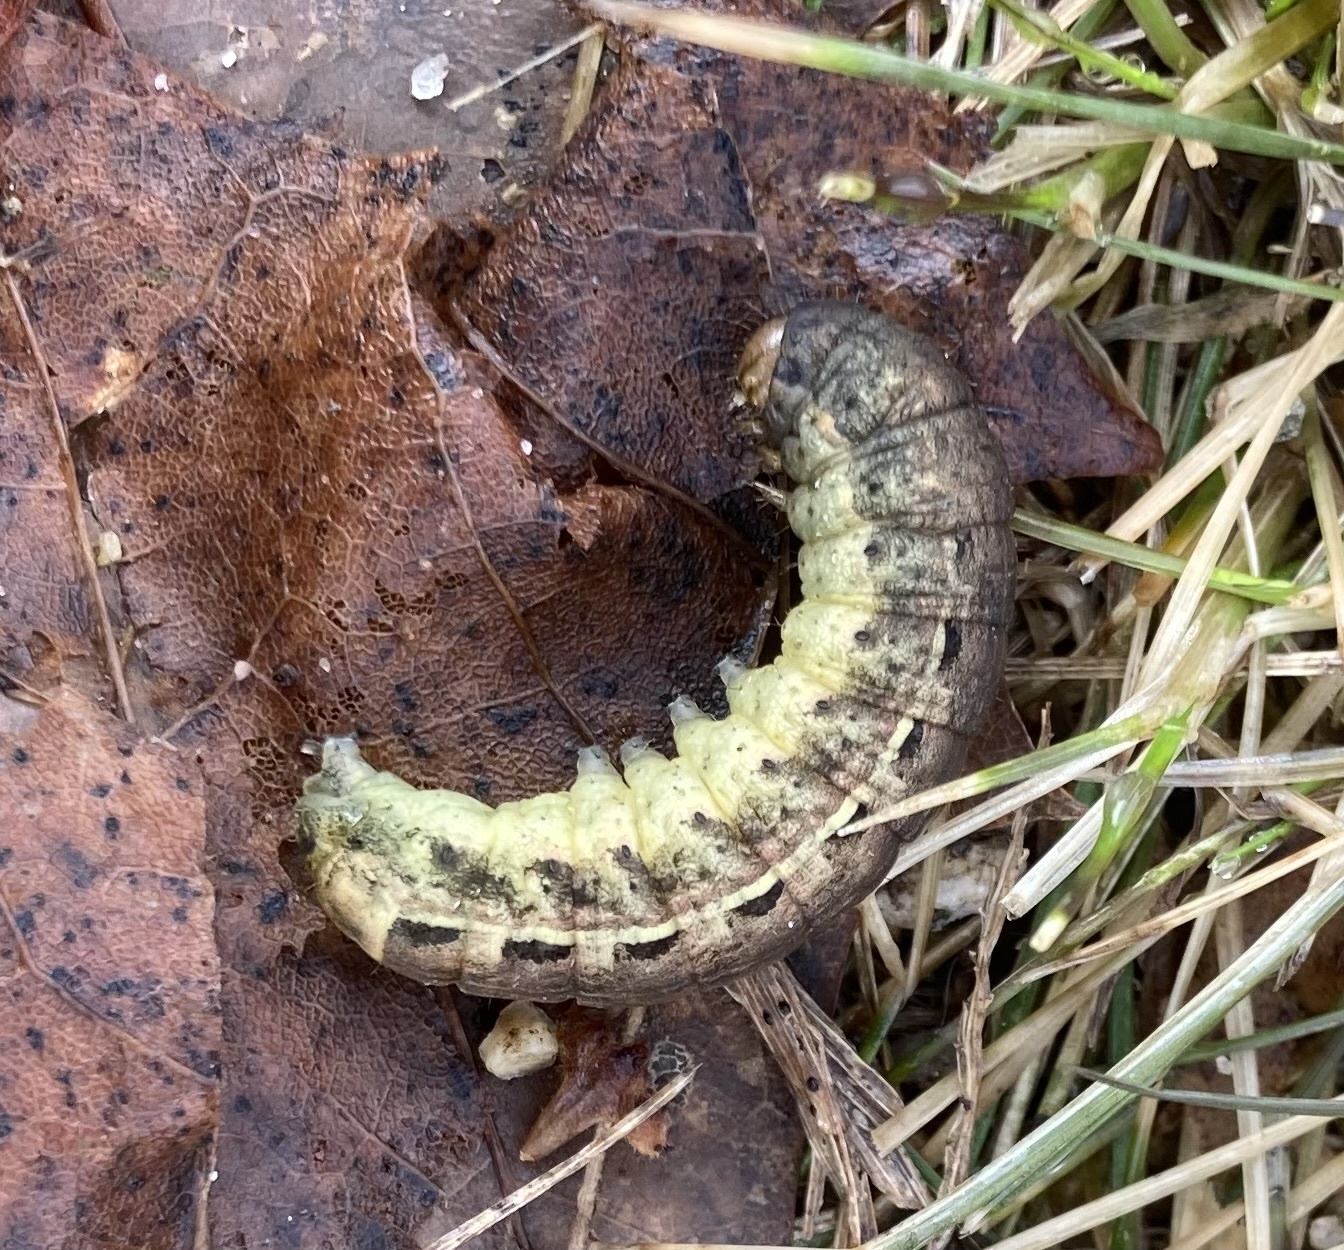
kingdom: Animalia
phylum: Arthropoda
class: Insecta
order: Lepidoptera
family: Noctuidae
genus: Noctua
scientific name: Noctua pronuba
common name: Large yellow underwing
